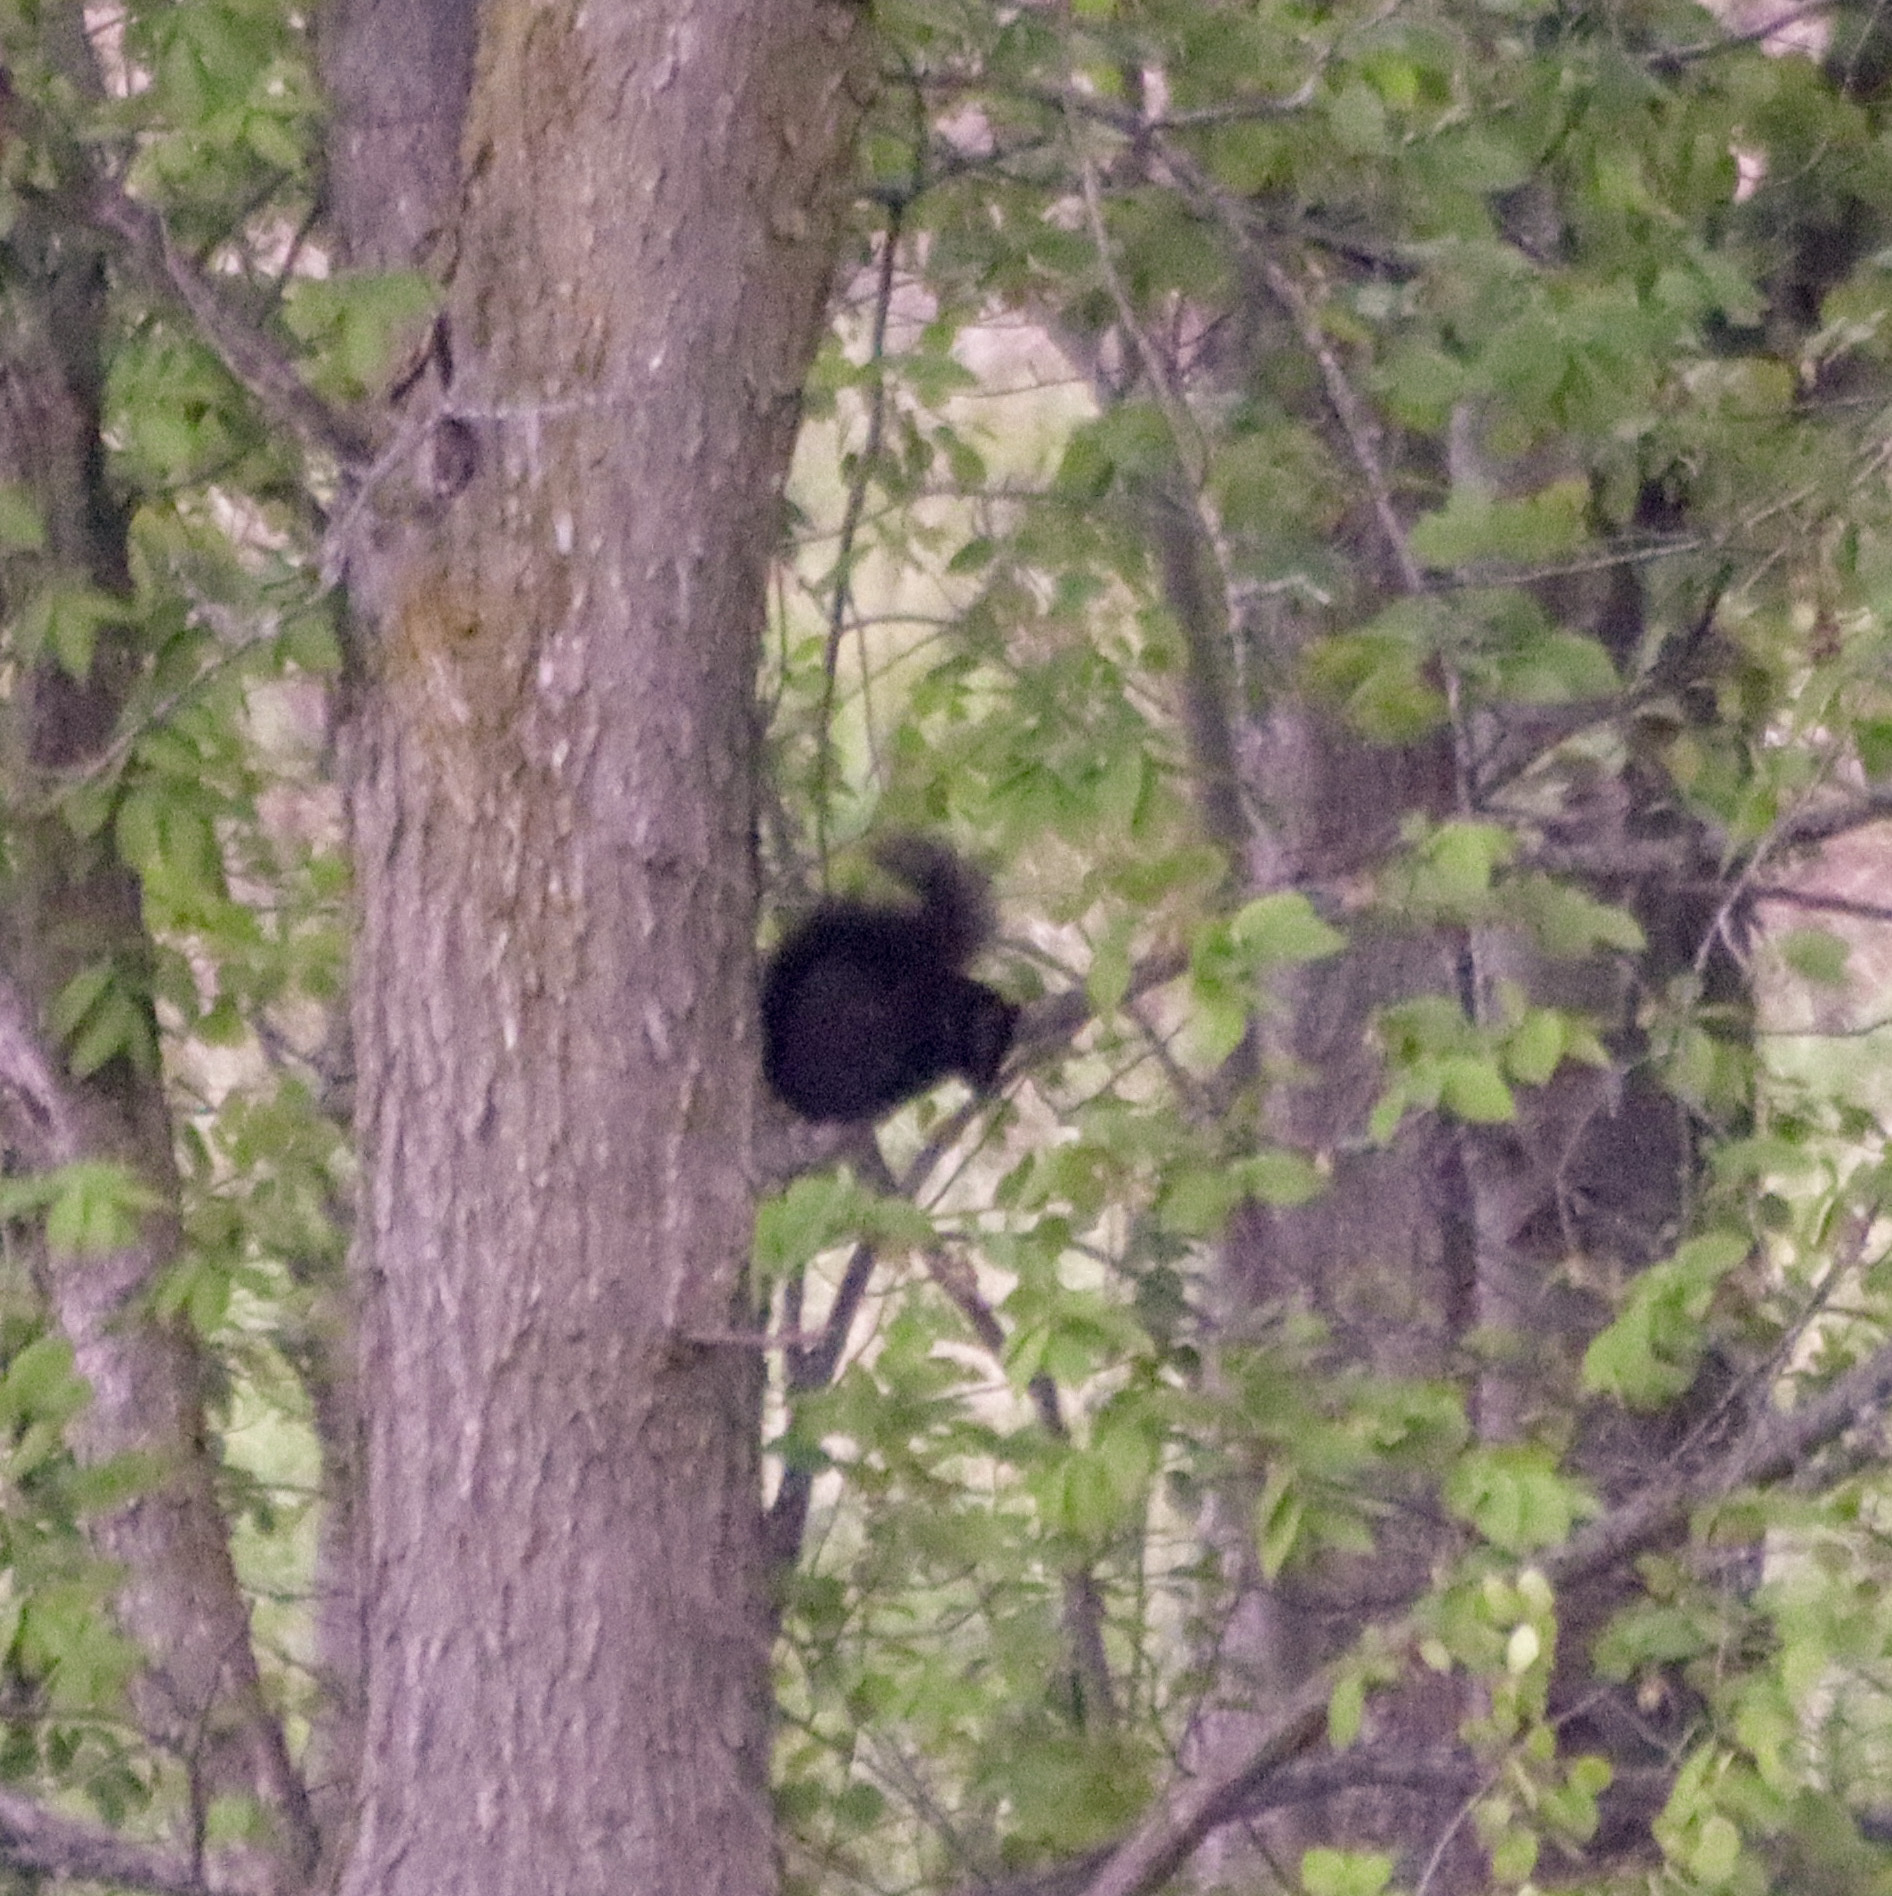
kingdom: Animalia
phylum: Chordata
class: Mammalia
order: Rodentia
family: Sciuridae
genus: Sciurus
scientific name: Sciurus carolinensis
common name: Eastern gray squirrel
